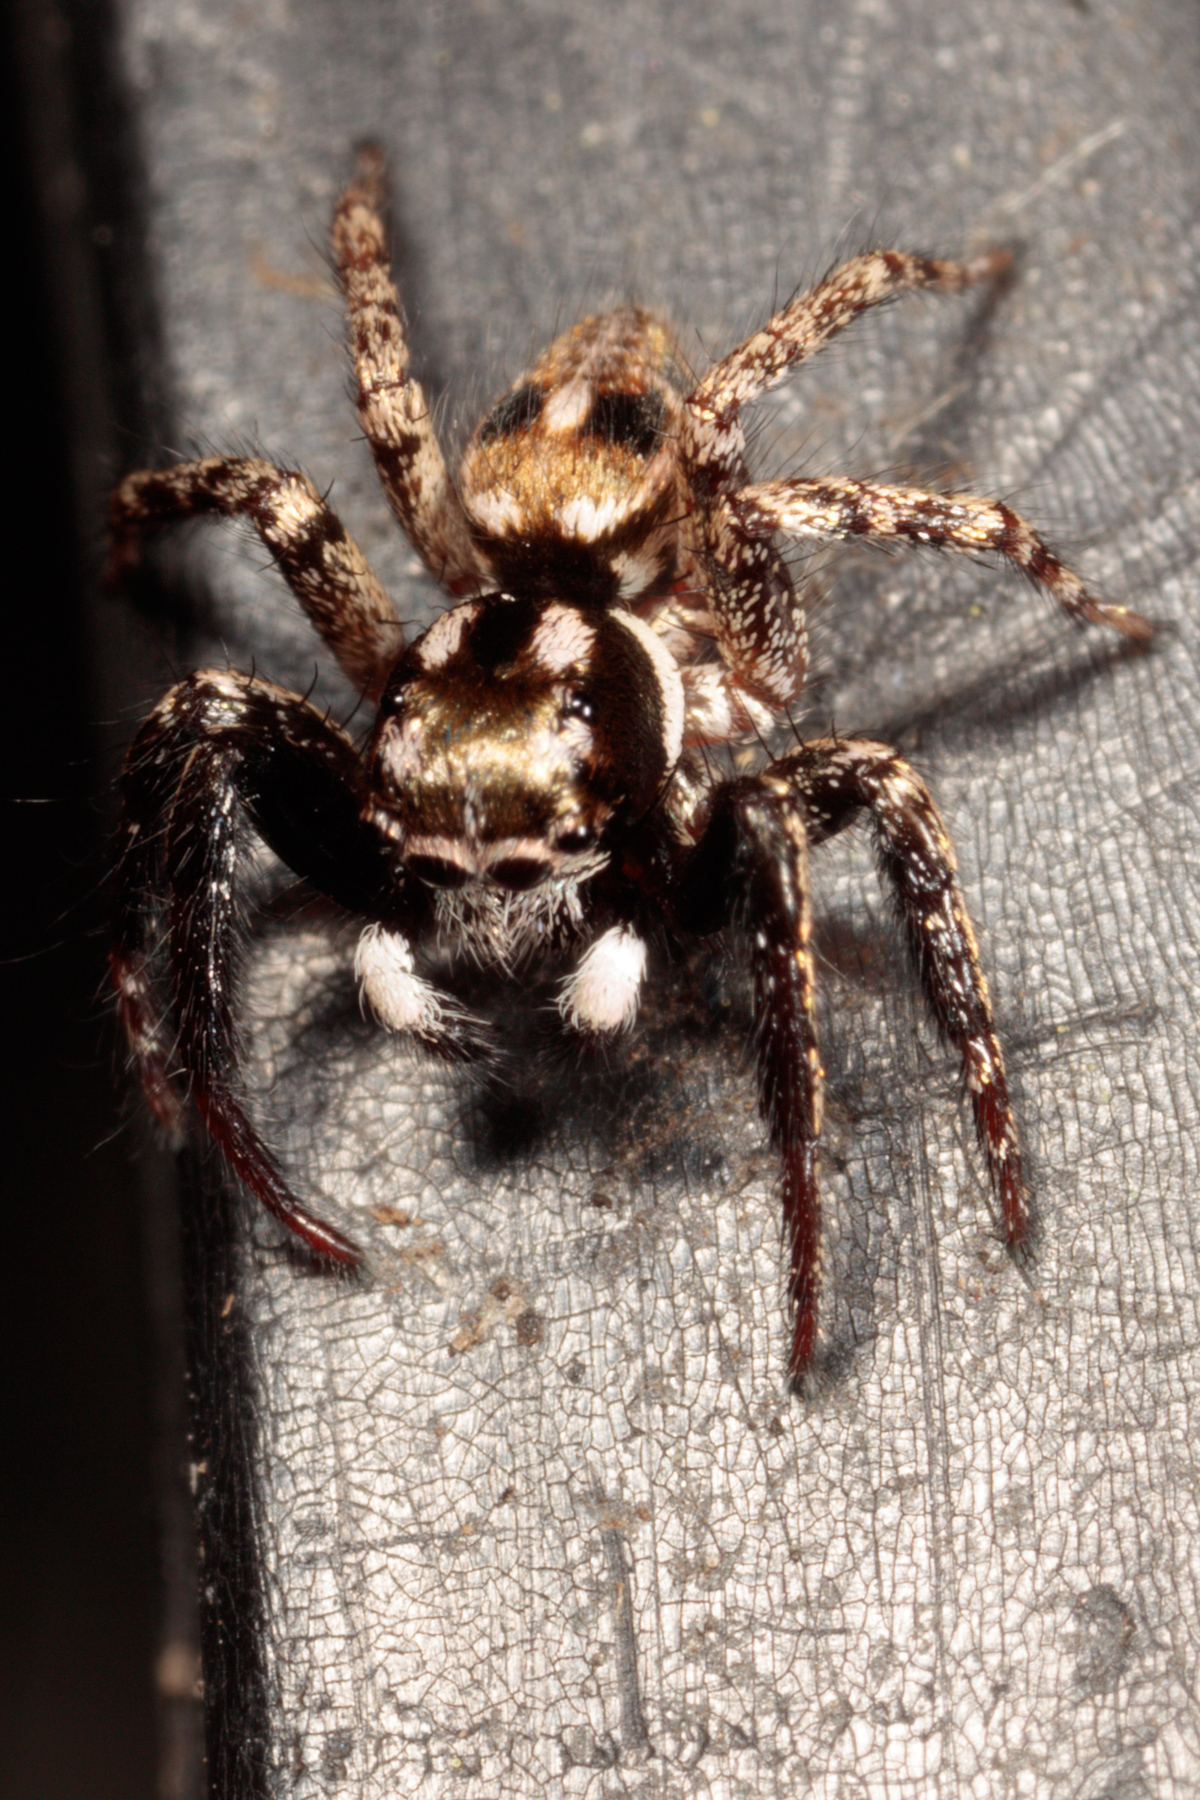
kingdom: Animalia
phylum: Arthropoda
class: Arachnida
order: Araneae
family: Salticidae
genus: Anasaitis
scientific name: Anasaitis canosa
